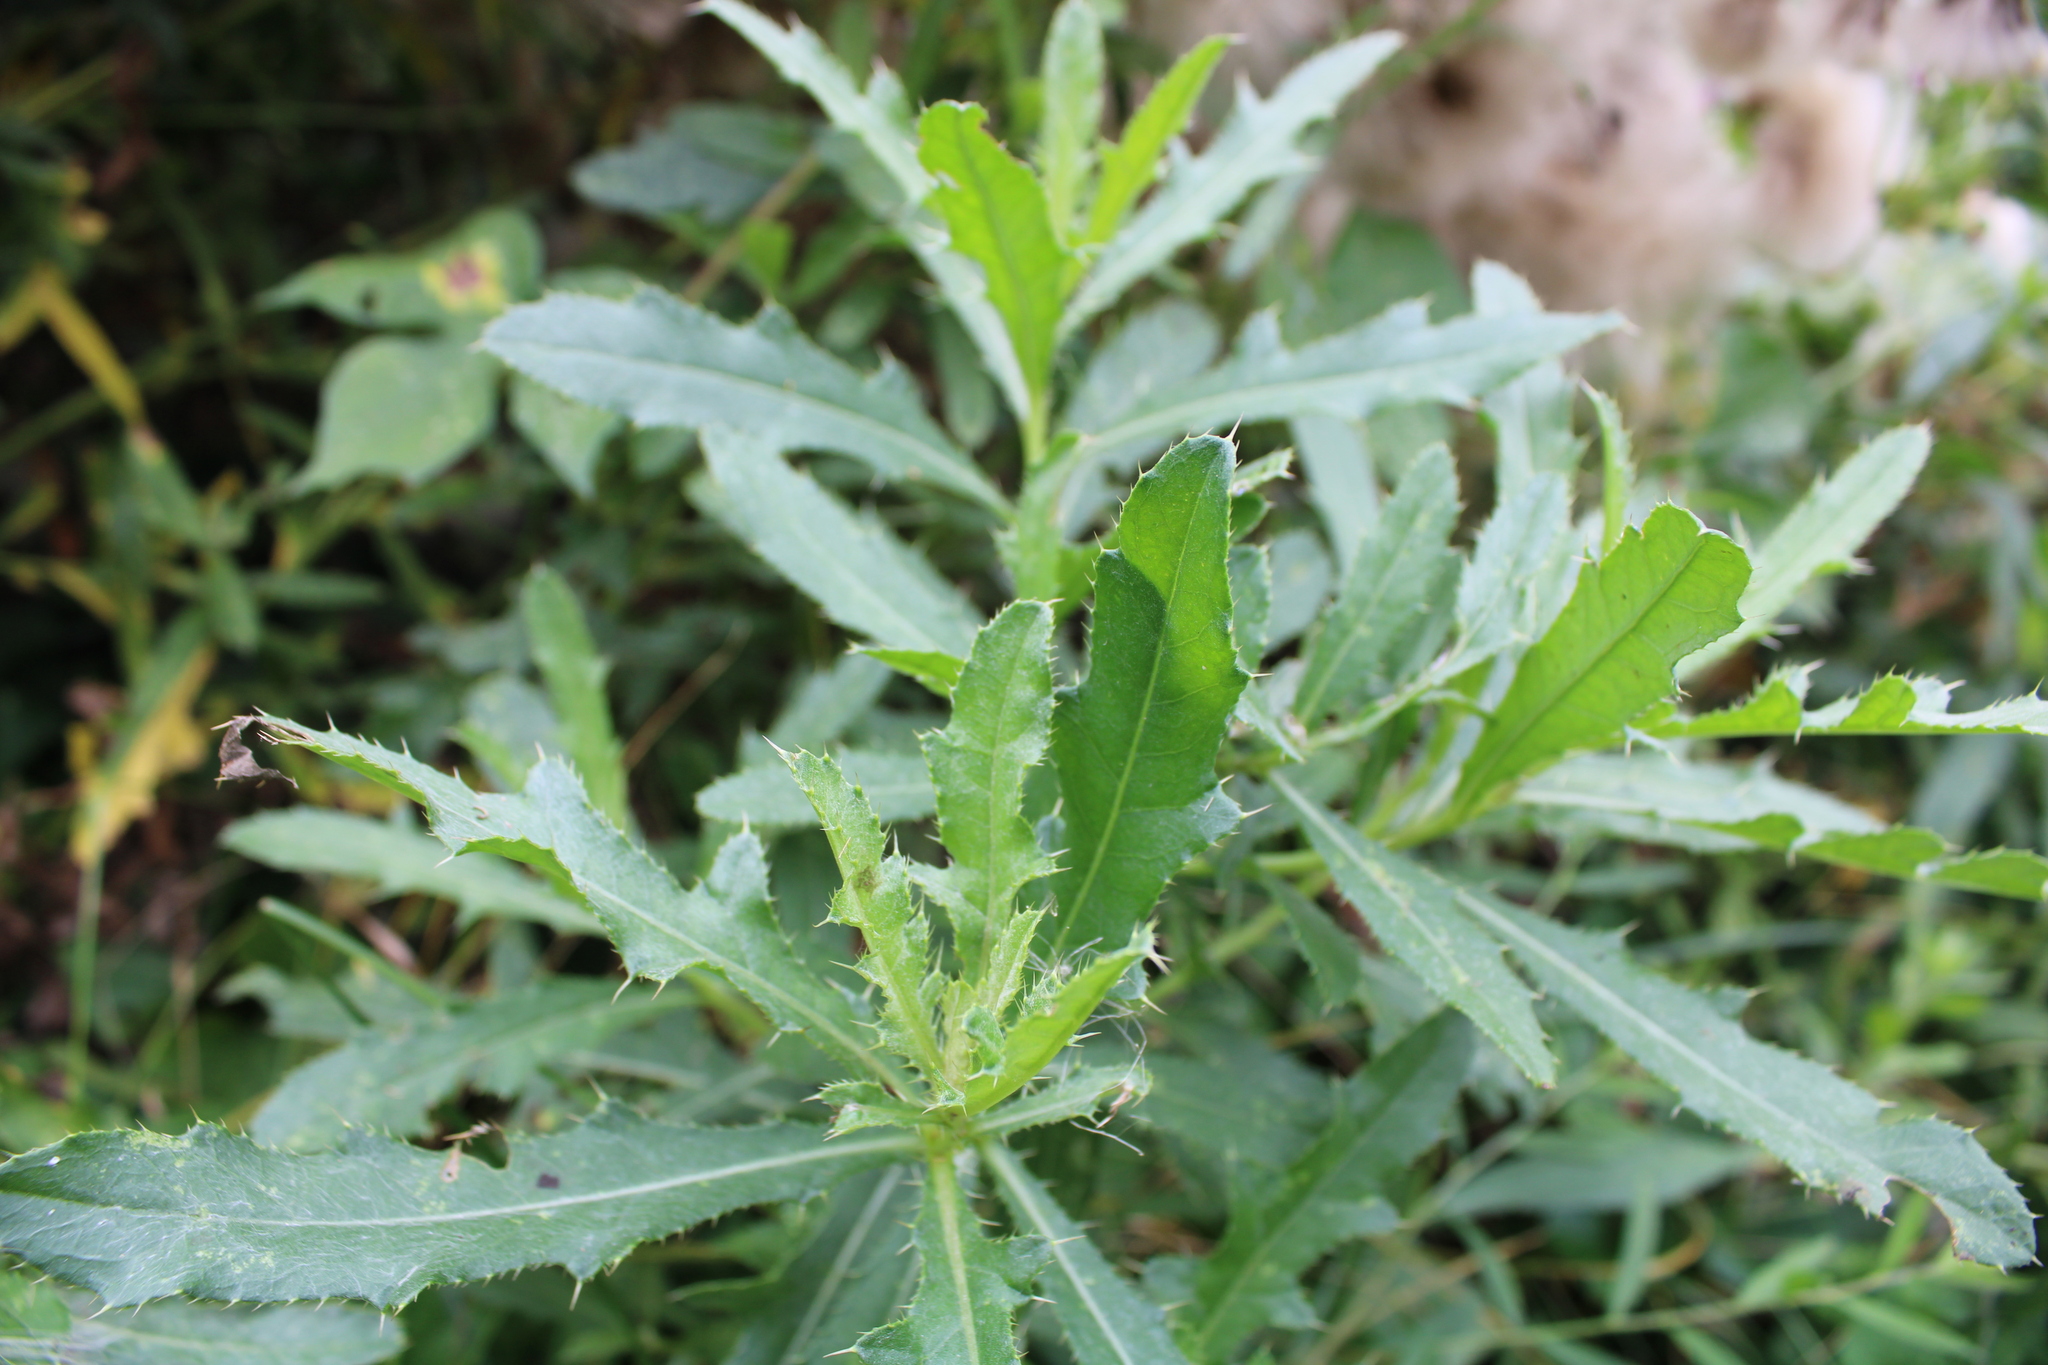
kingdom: Plantae
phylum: Tracheophyta
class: Magnoliopsida
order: Asterales
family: Asteraceae
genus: Cirsium
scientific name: Cirsium arvense
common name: Creeping thistle
